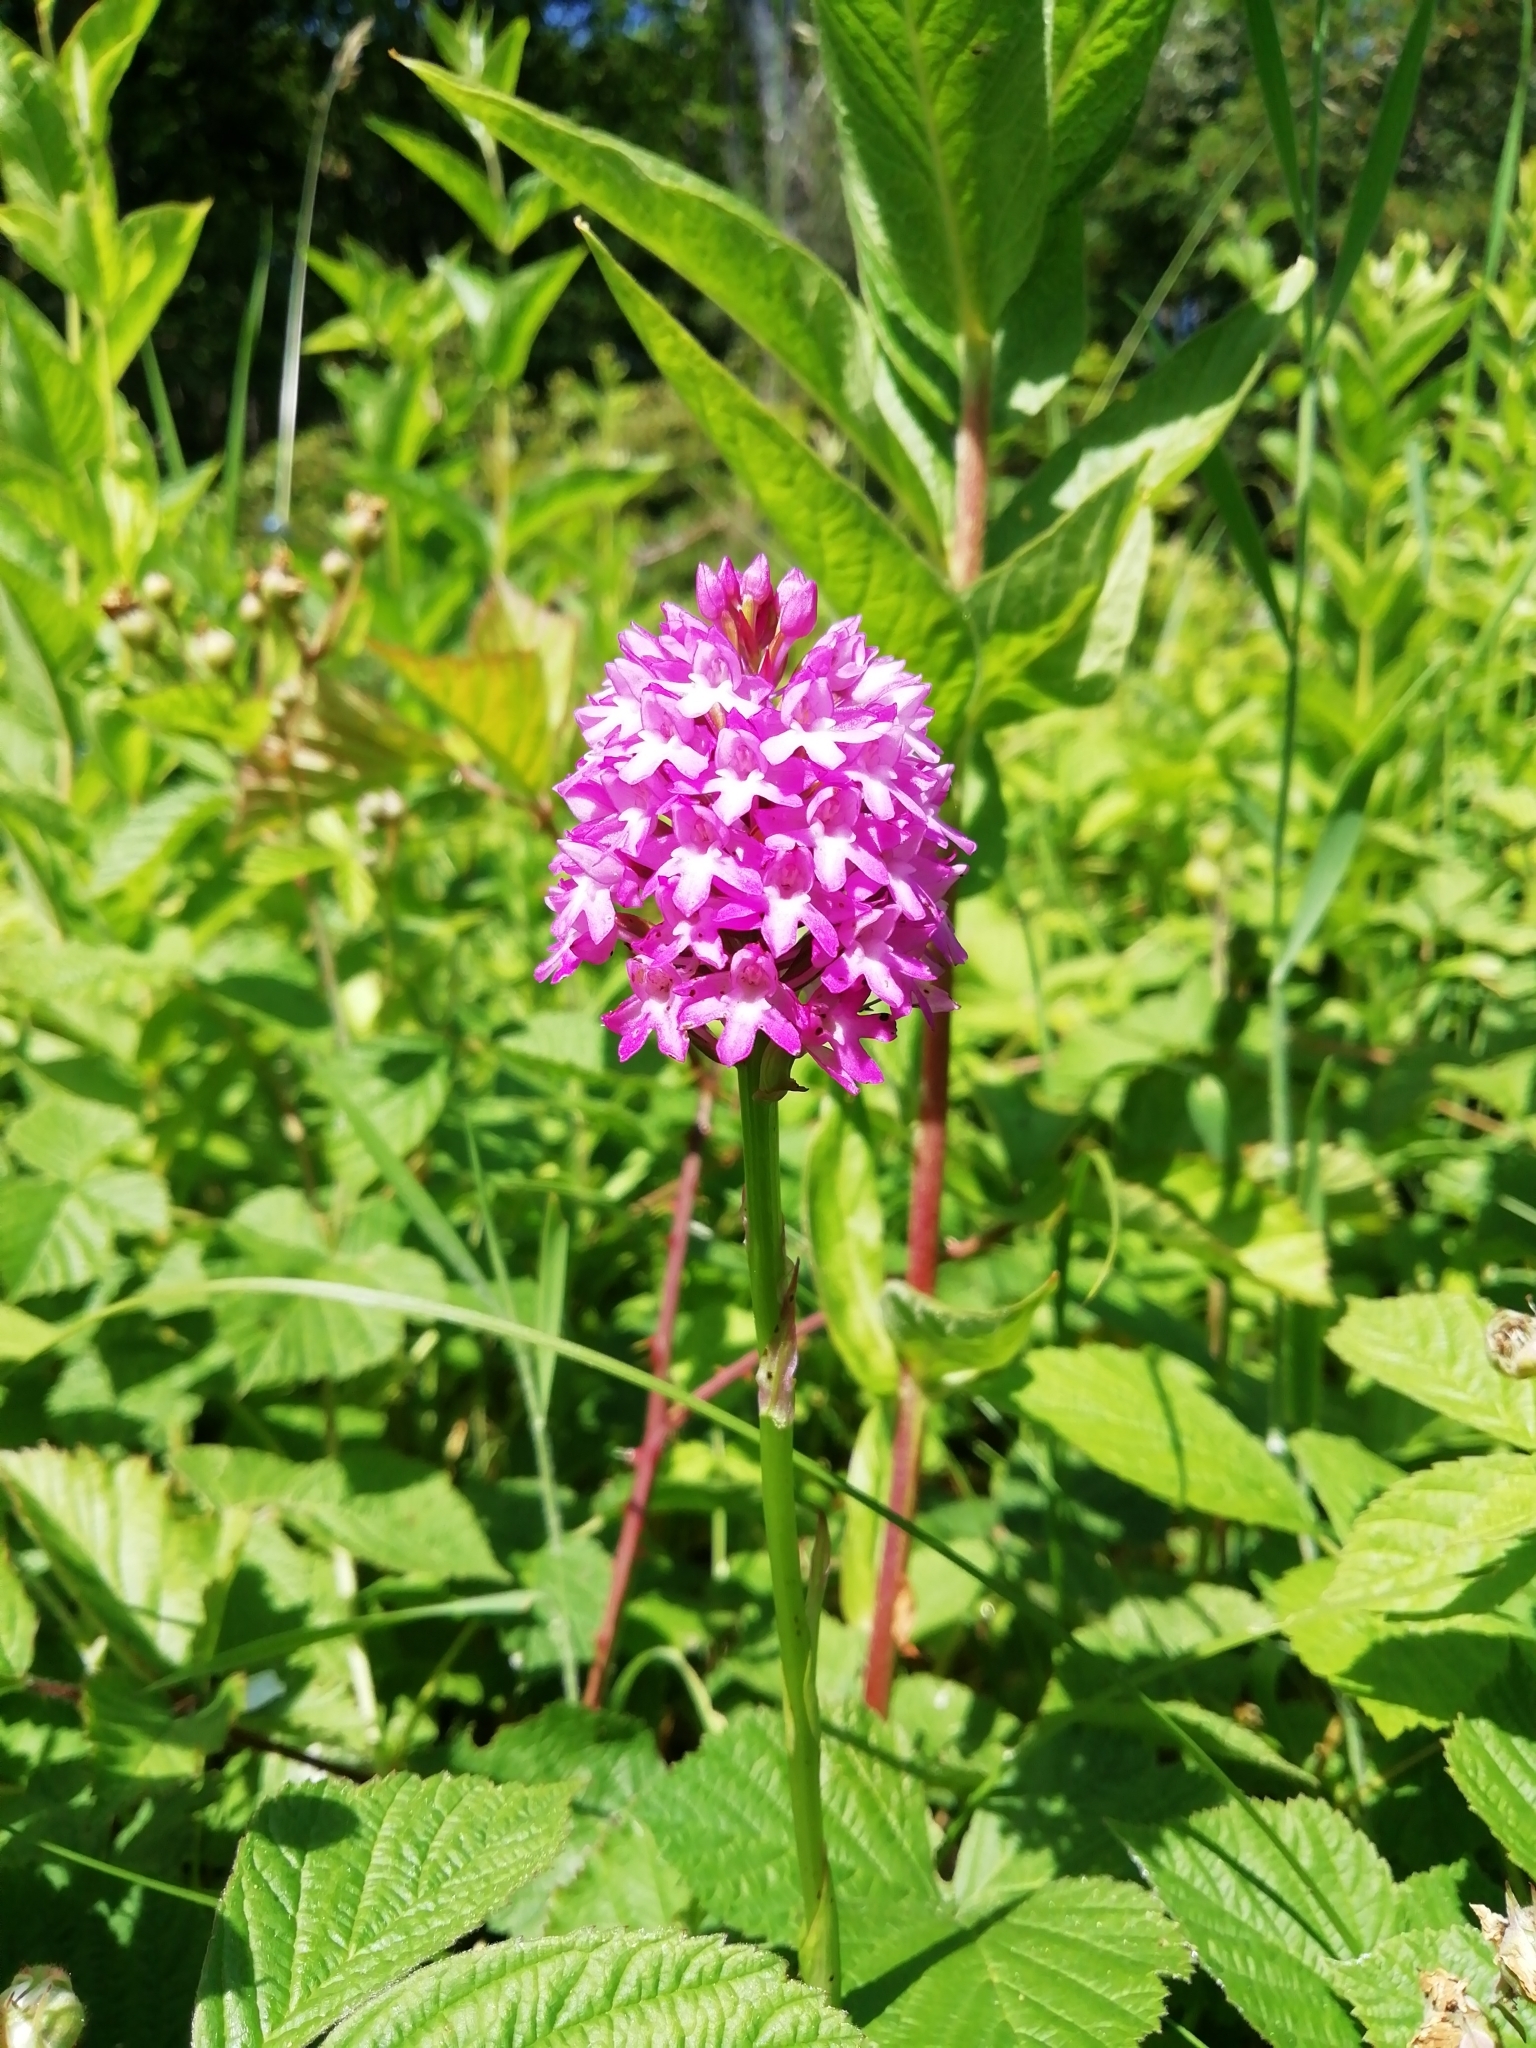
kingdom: Plantae
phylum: Tracheophyta
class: Liliopsida
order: Asparagales
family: Orchidaceae
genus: Anacamptis
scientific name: Anacamptis pyramidalis
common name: Pyramidal orchid
